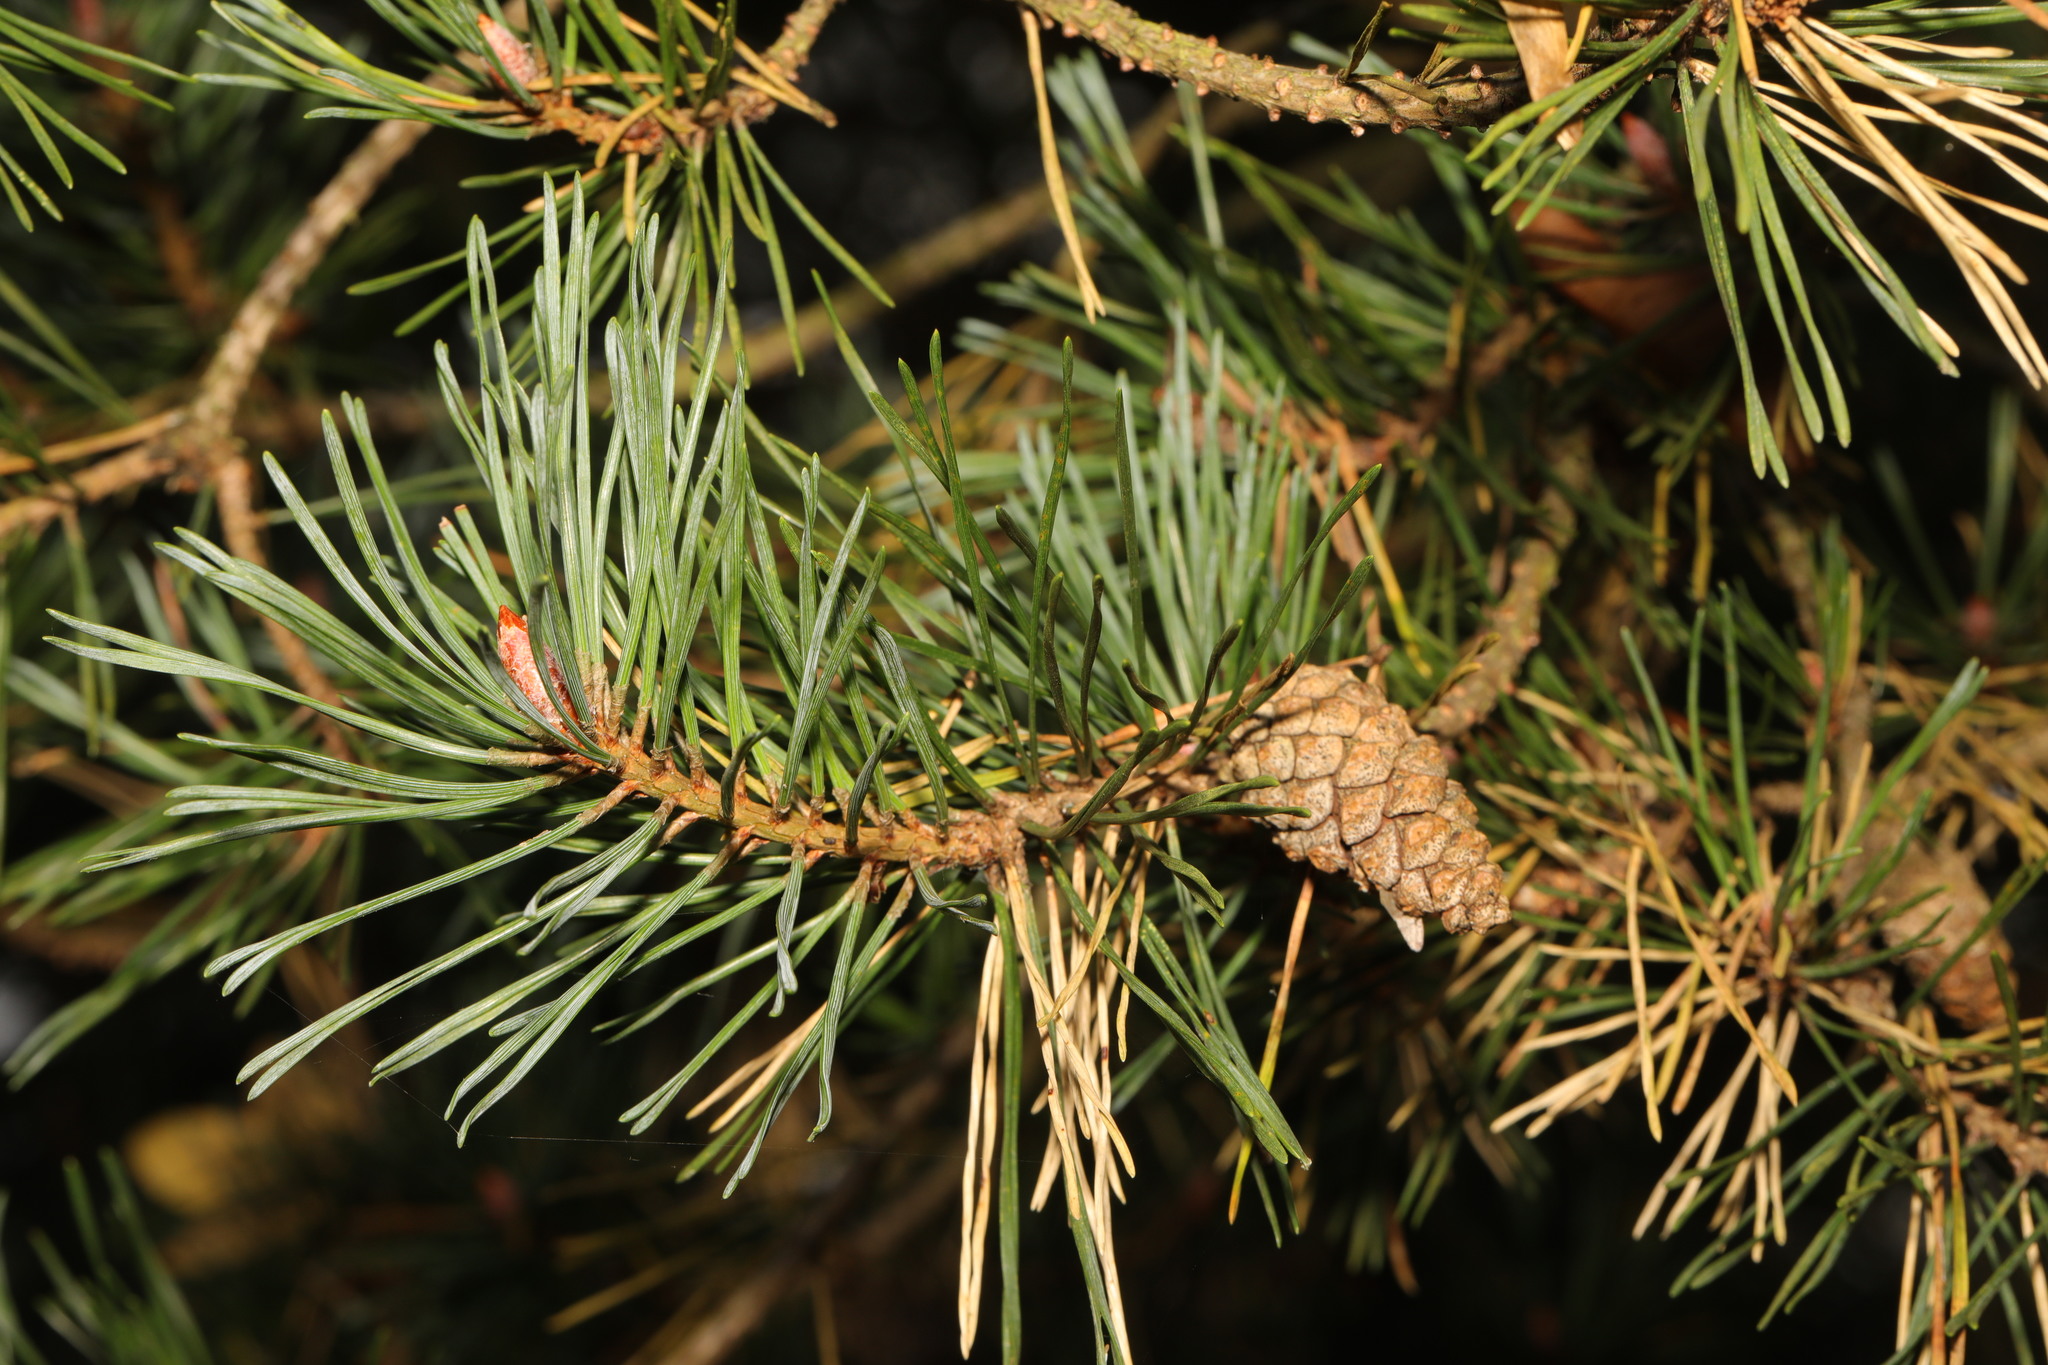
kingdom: Plantae
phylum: Tracheophyta
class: Pinopsida
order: Pinales
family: Pinaceae
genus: Pinus
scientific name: Pinus sylvestris
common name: Scots pine
